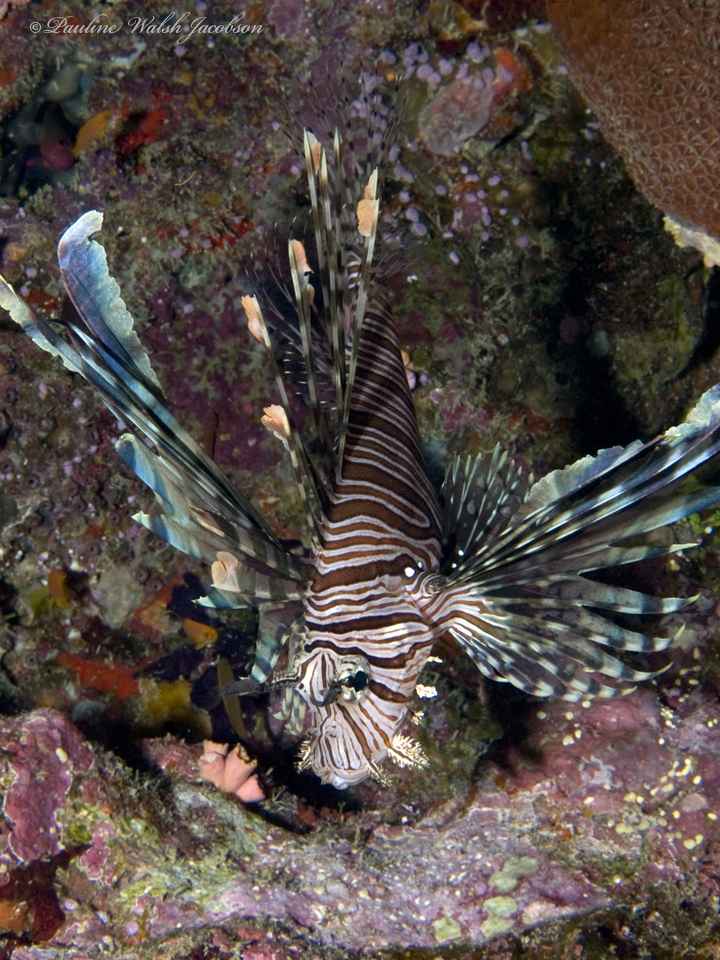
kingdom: Animalia
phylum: Chordata
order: Scorpaeniformes
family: Scorpaenidae
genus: Pterois
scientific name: Pterois volitans
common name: Lionfish
